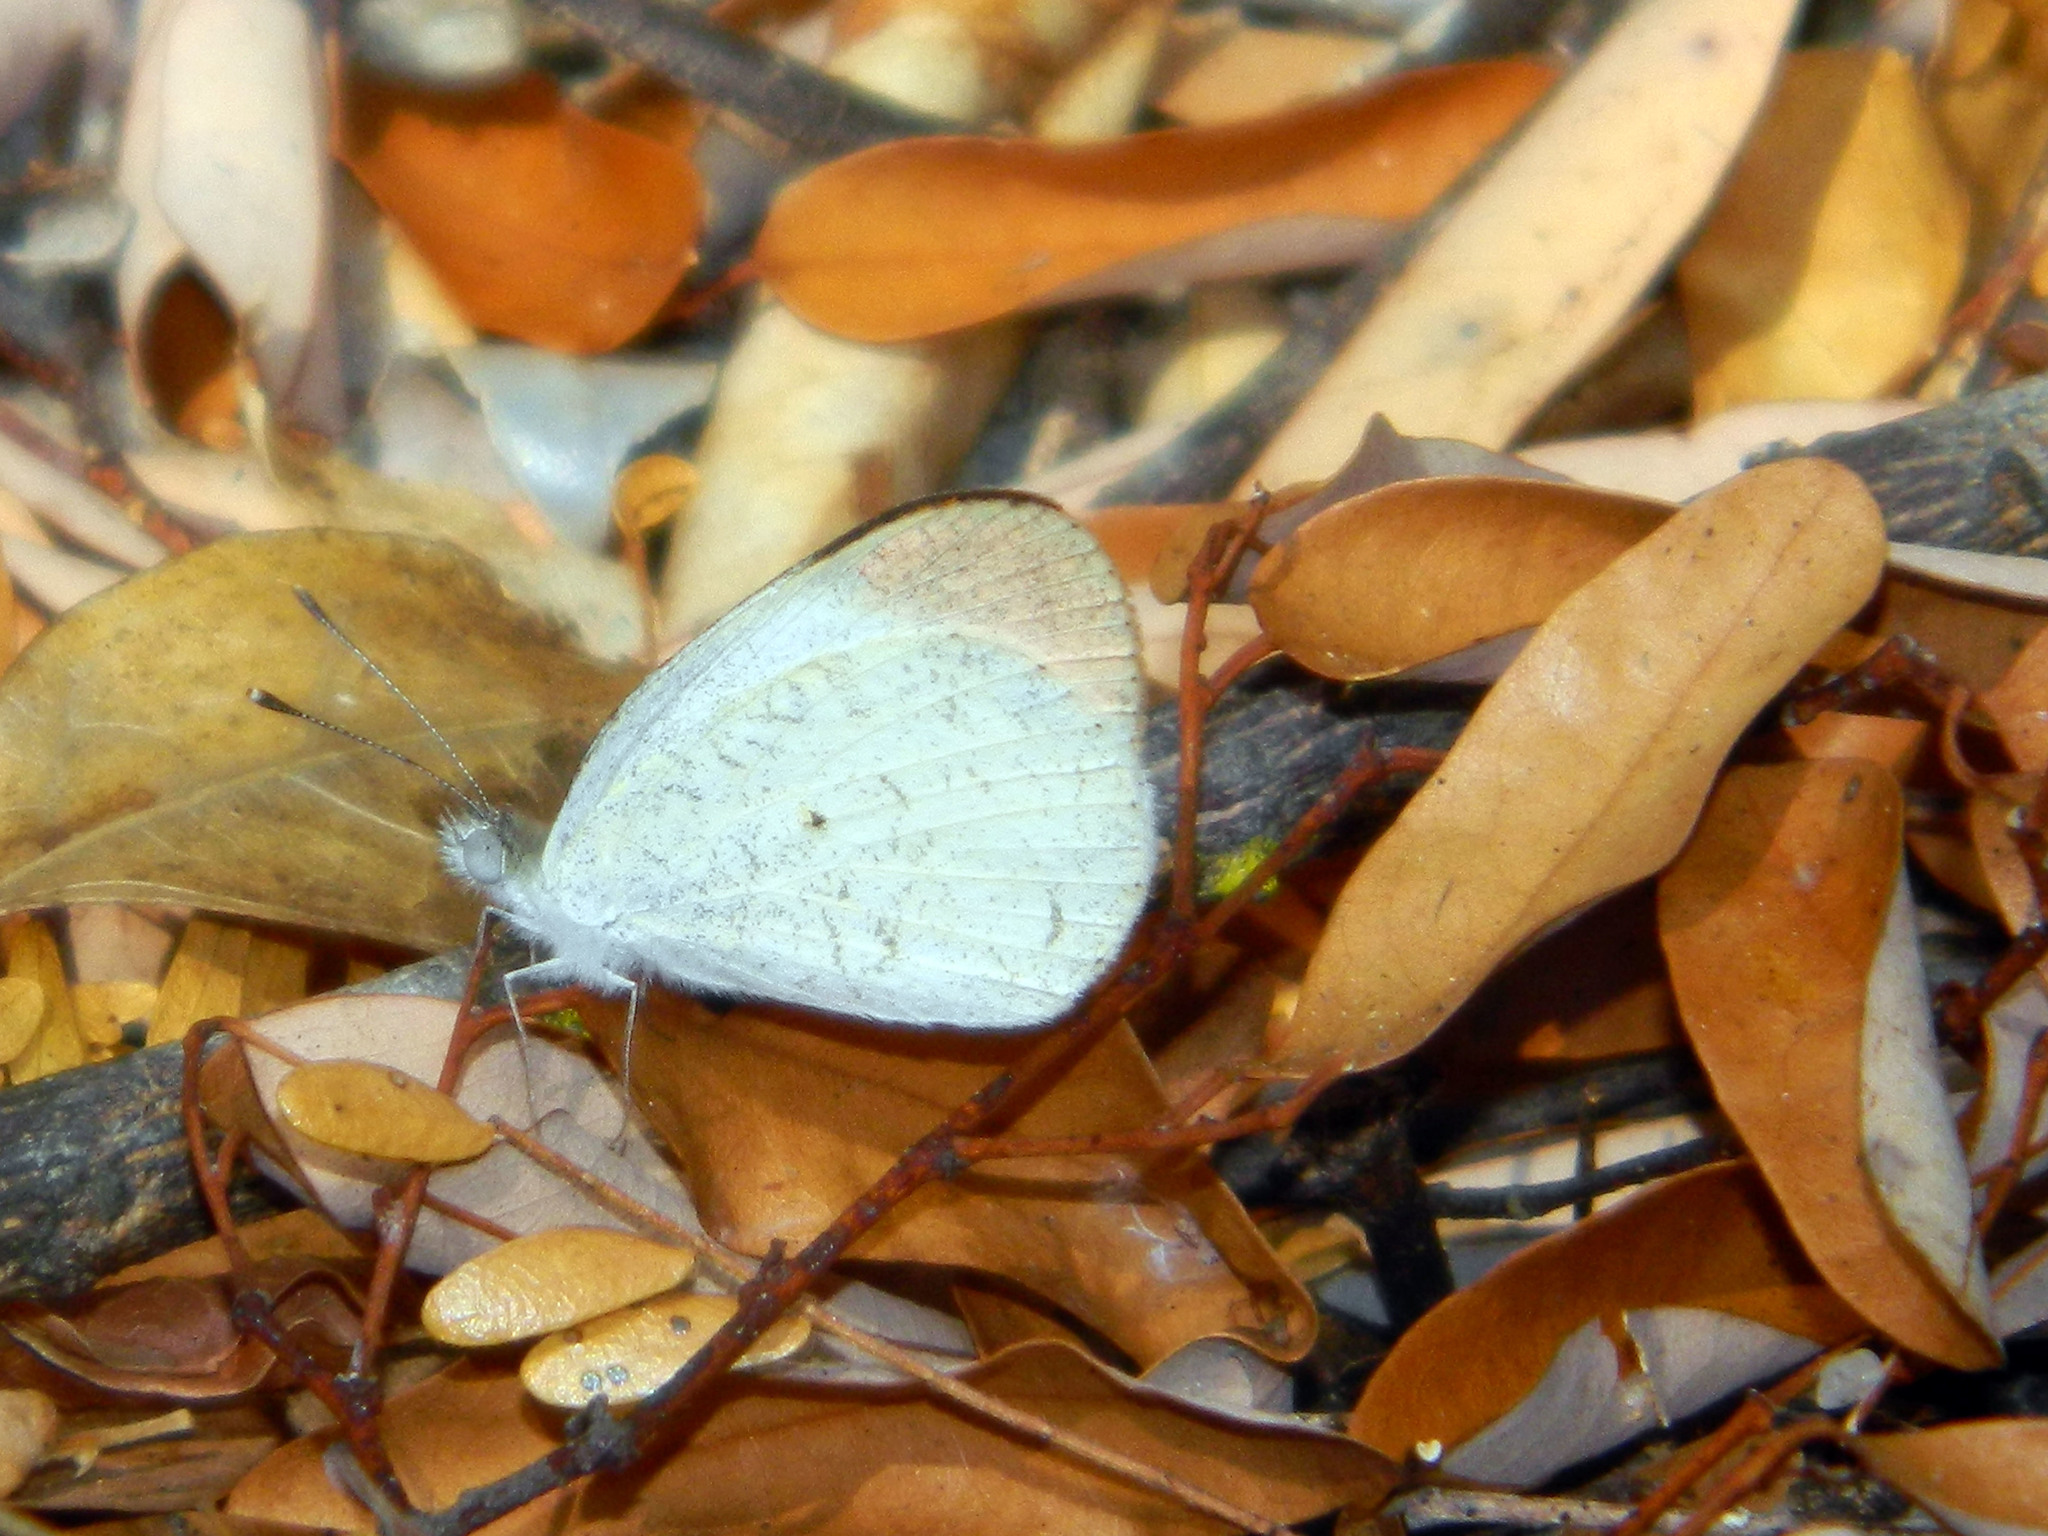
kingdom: Animalia
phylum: Arthropoda
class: Insecta
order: Lepidoptera
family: Pieridae
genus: Colotis
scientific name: Colotis evanthe
